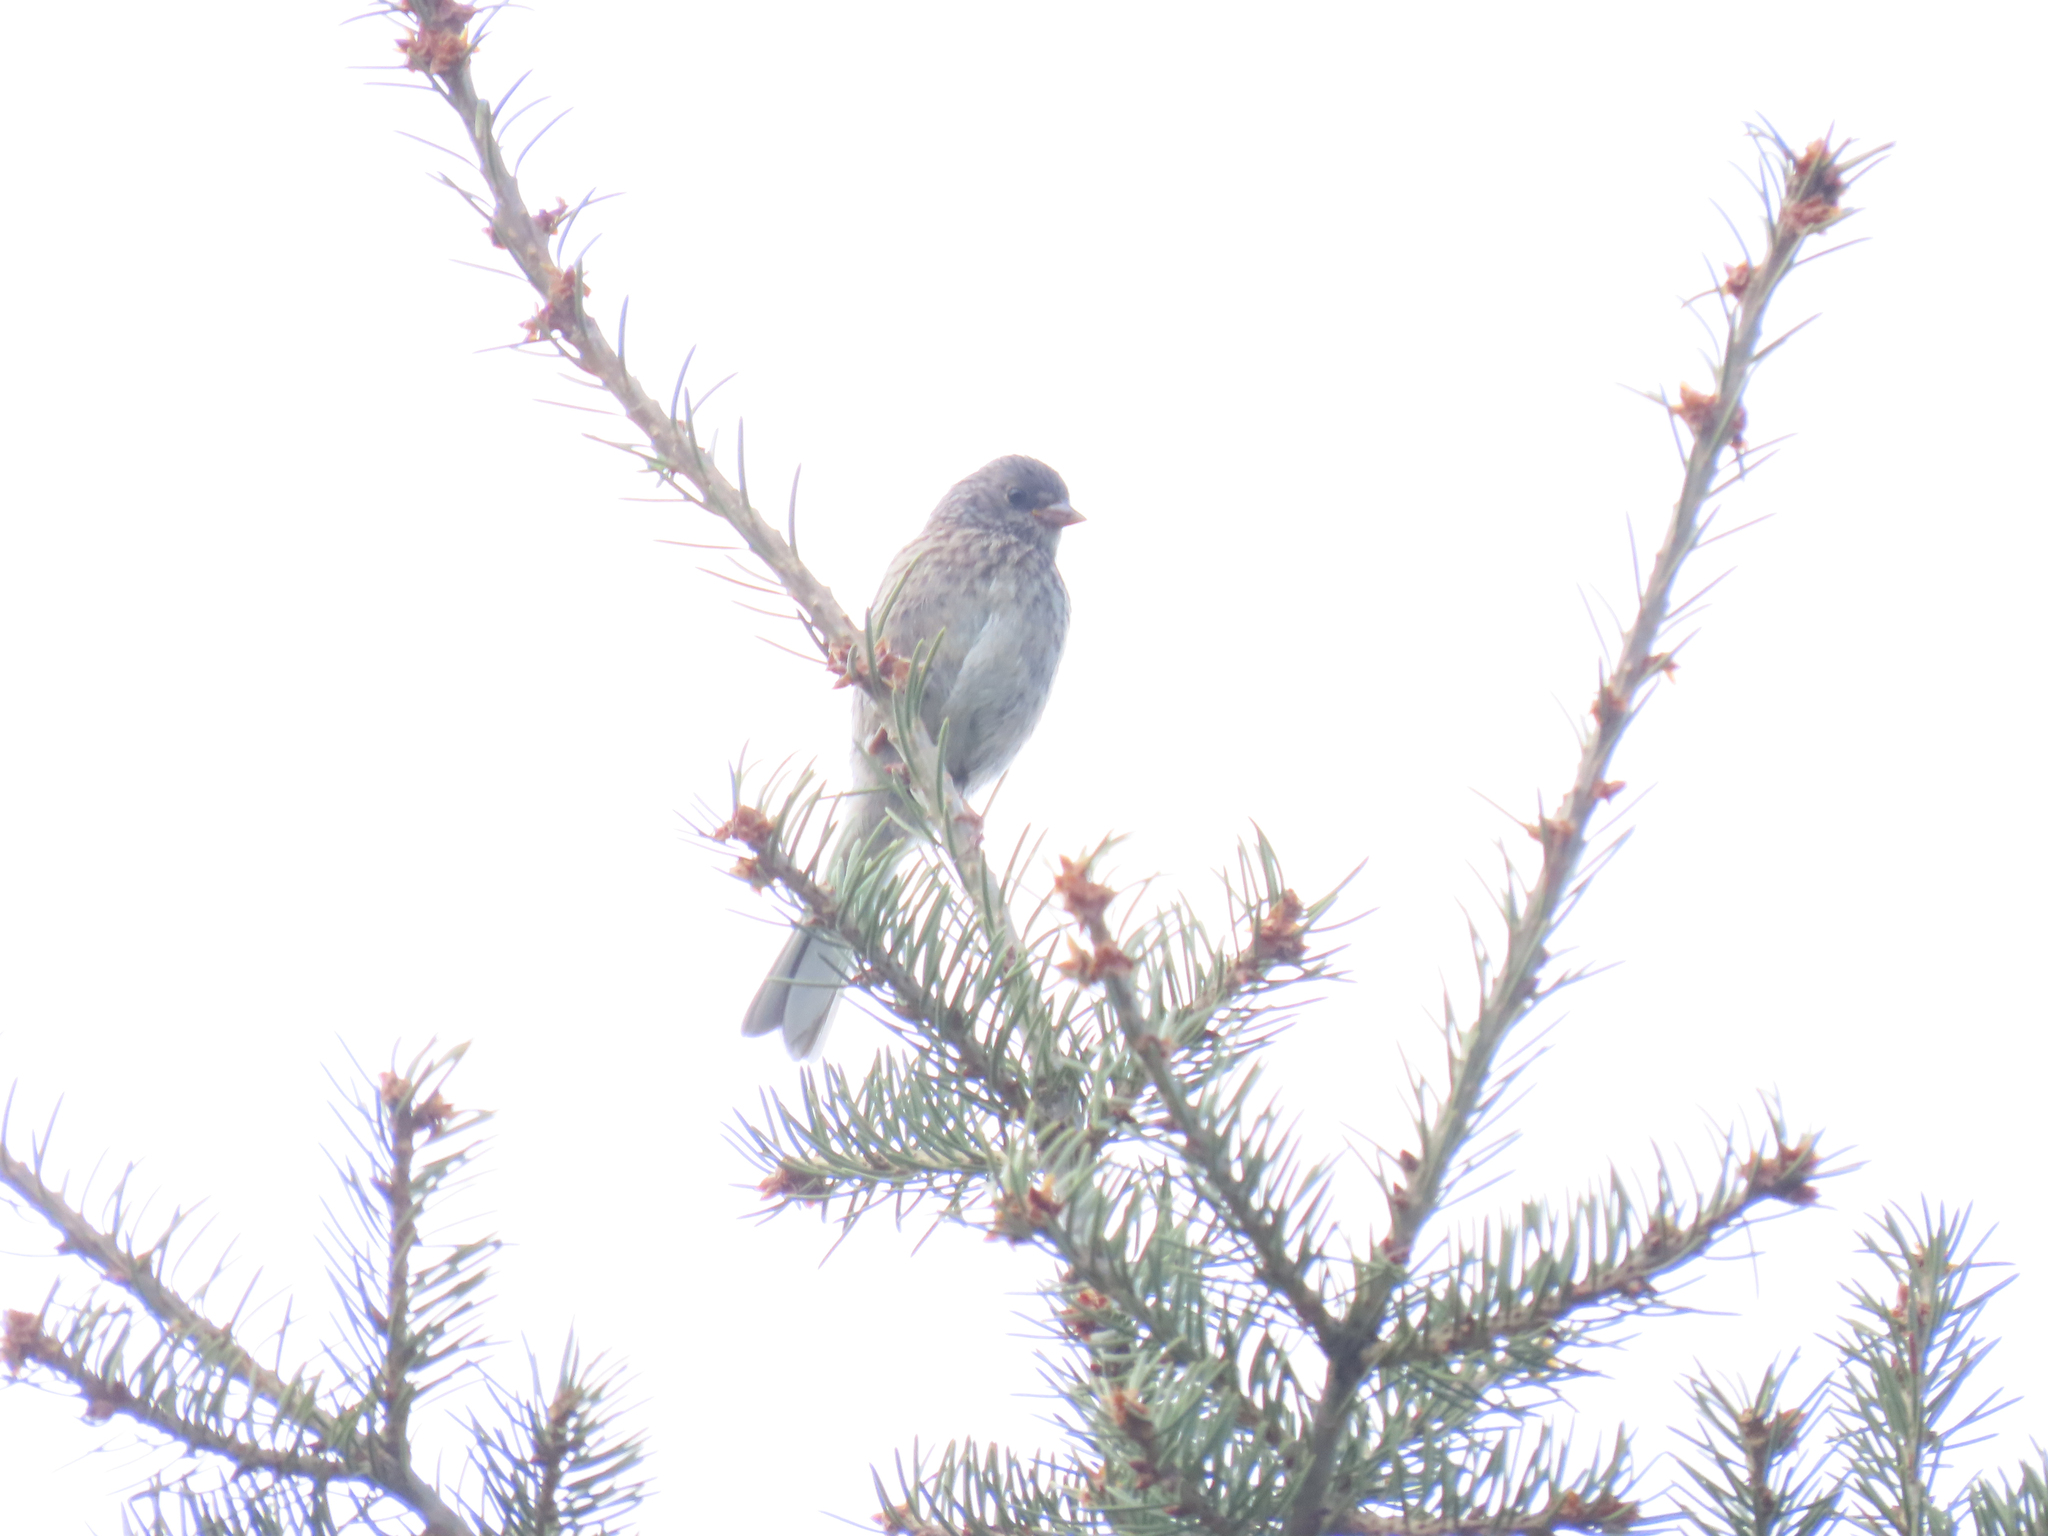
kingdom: Animalia
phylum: Chordata
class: Aves
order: Passeriformes
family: Passerellidae
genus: Junco
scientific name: Junco hyemalis
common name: Dark-eyed junco
